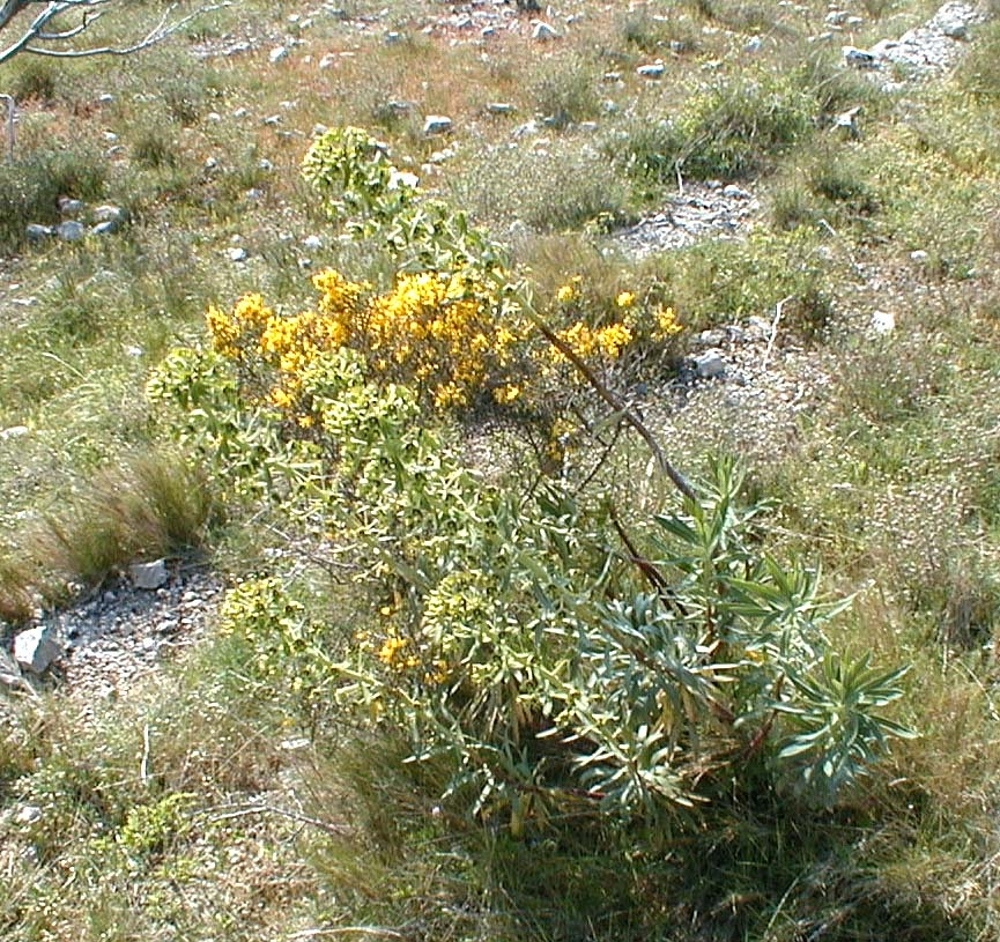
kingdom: Plantae
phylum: Tracheophyta
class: Magnoliopsida
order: Malpighiales
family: Euphorbiaceae
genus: Euphorbia
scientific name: Euphorbia characias
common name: Mediterranean spurge
